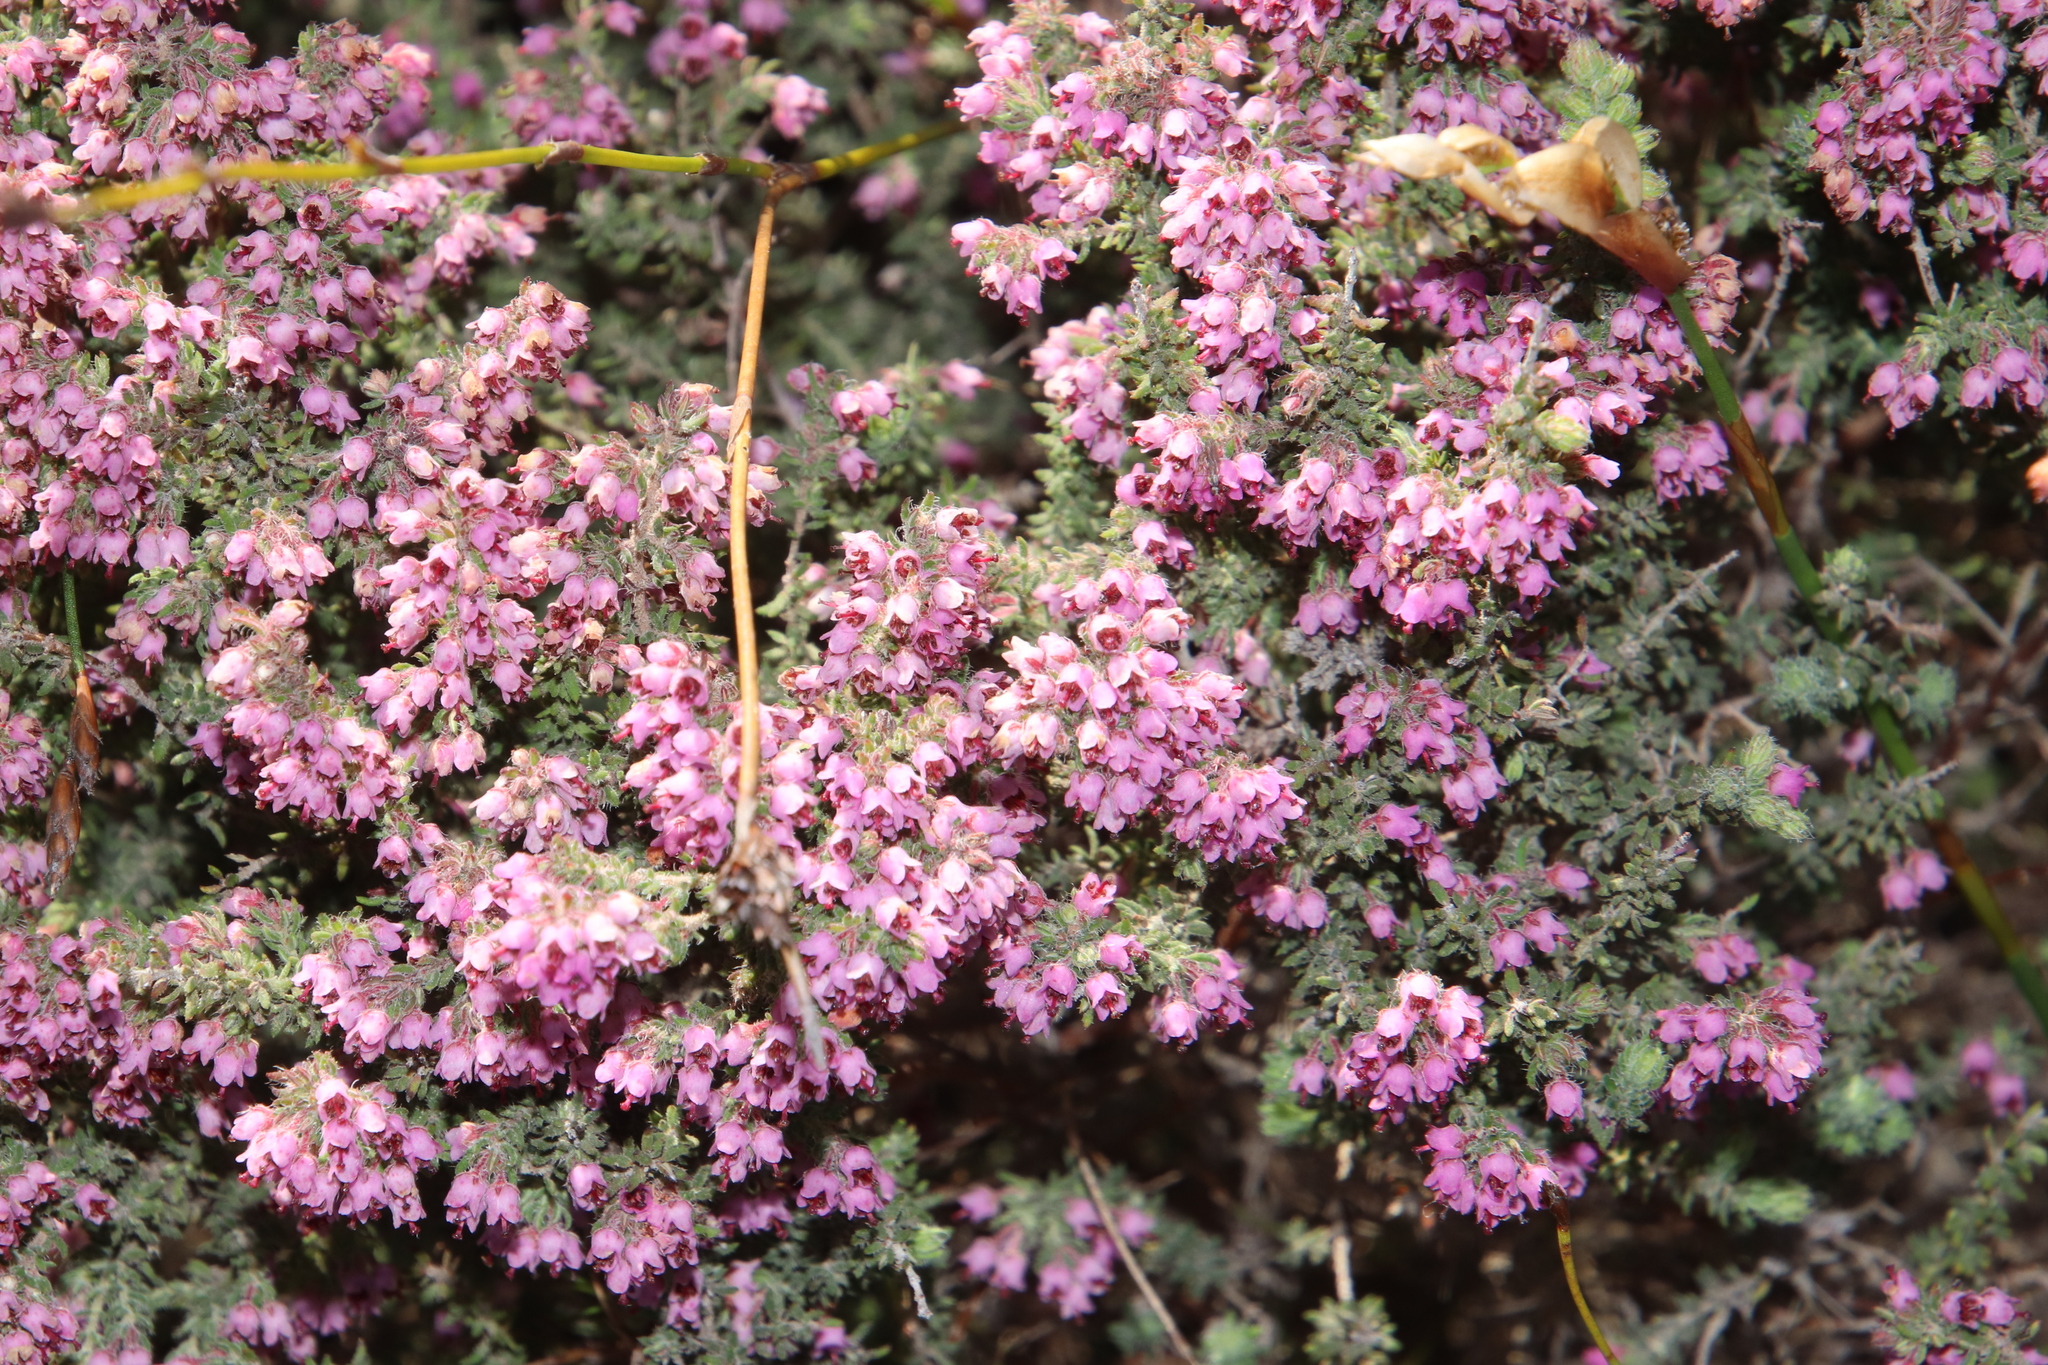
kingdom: Plantae
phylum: Tracheophyta
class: Magnoliopsida
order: Ericales
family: Ericaceae
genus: Erica
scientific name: Erica trichadenia
